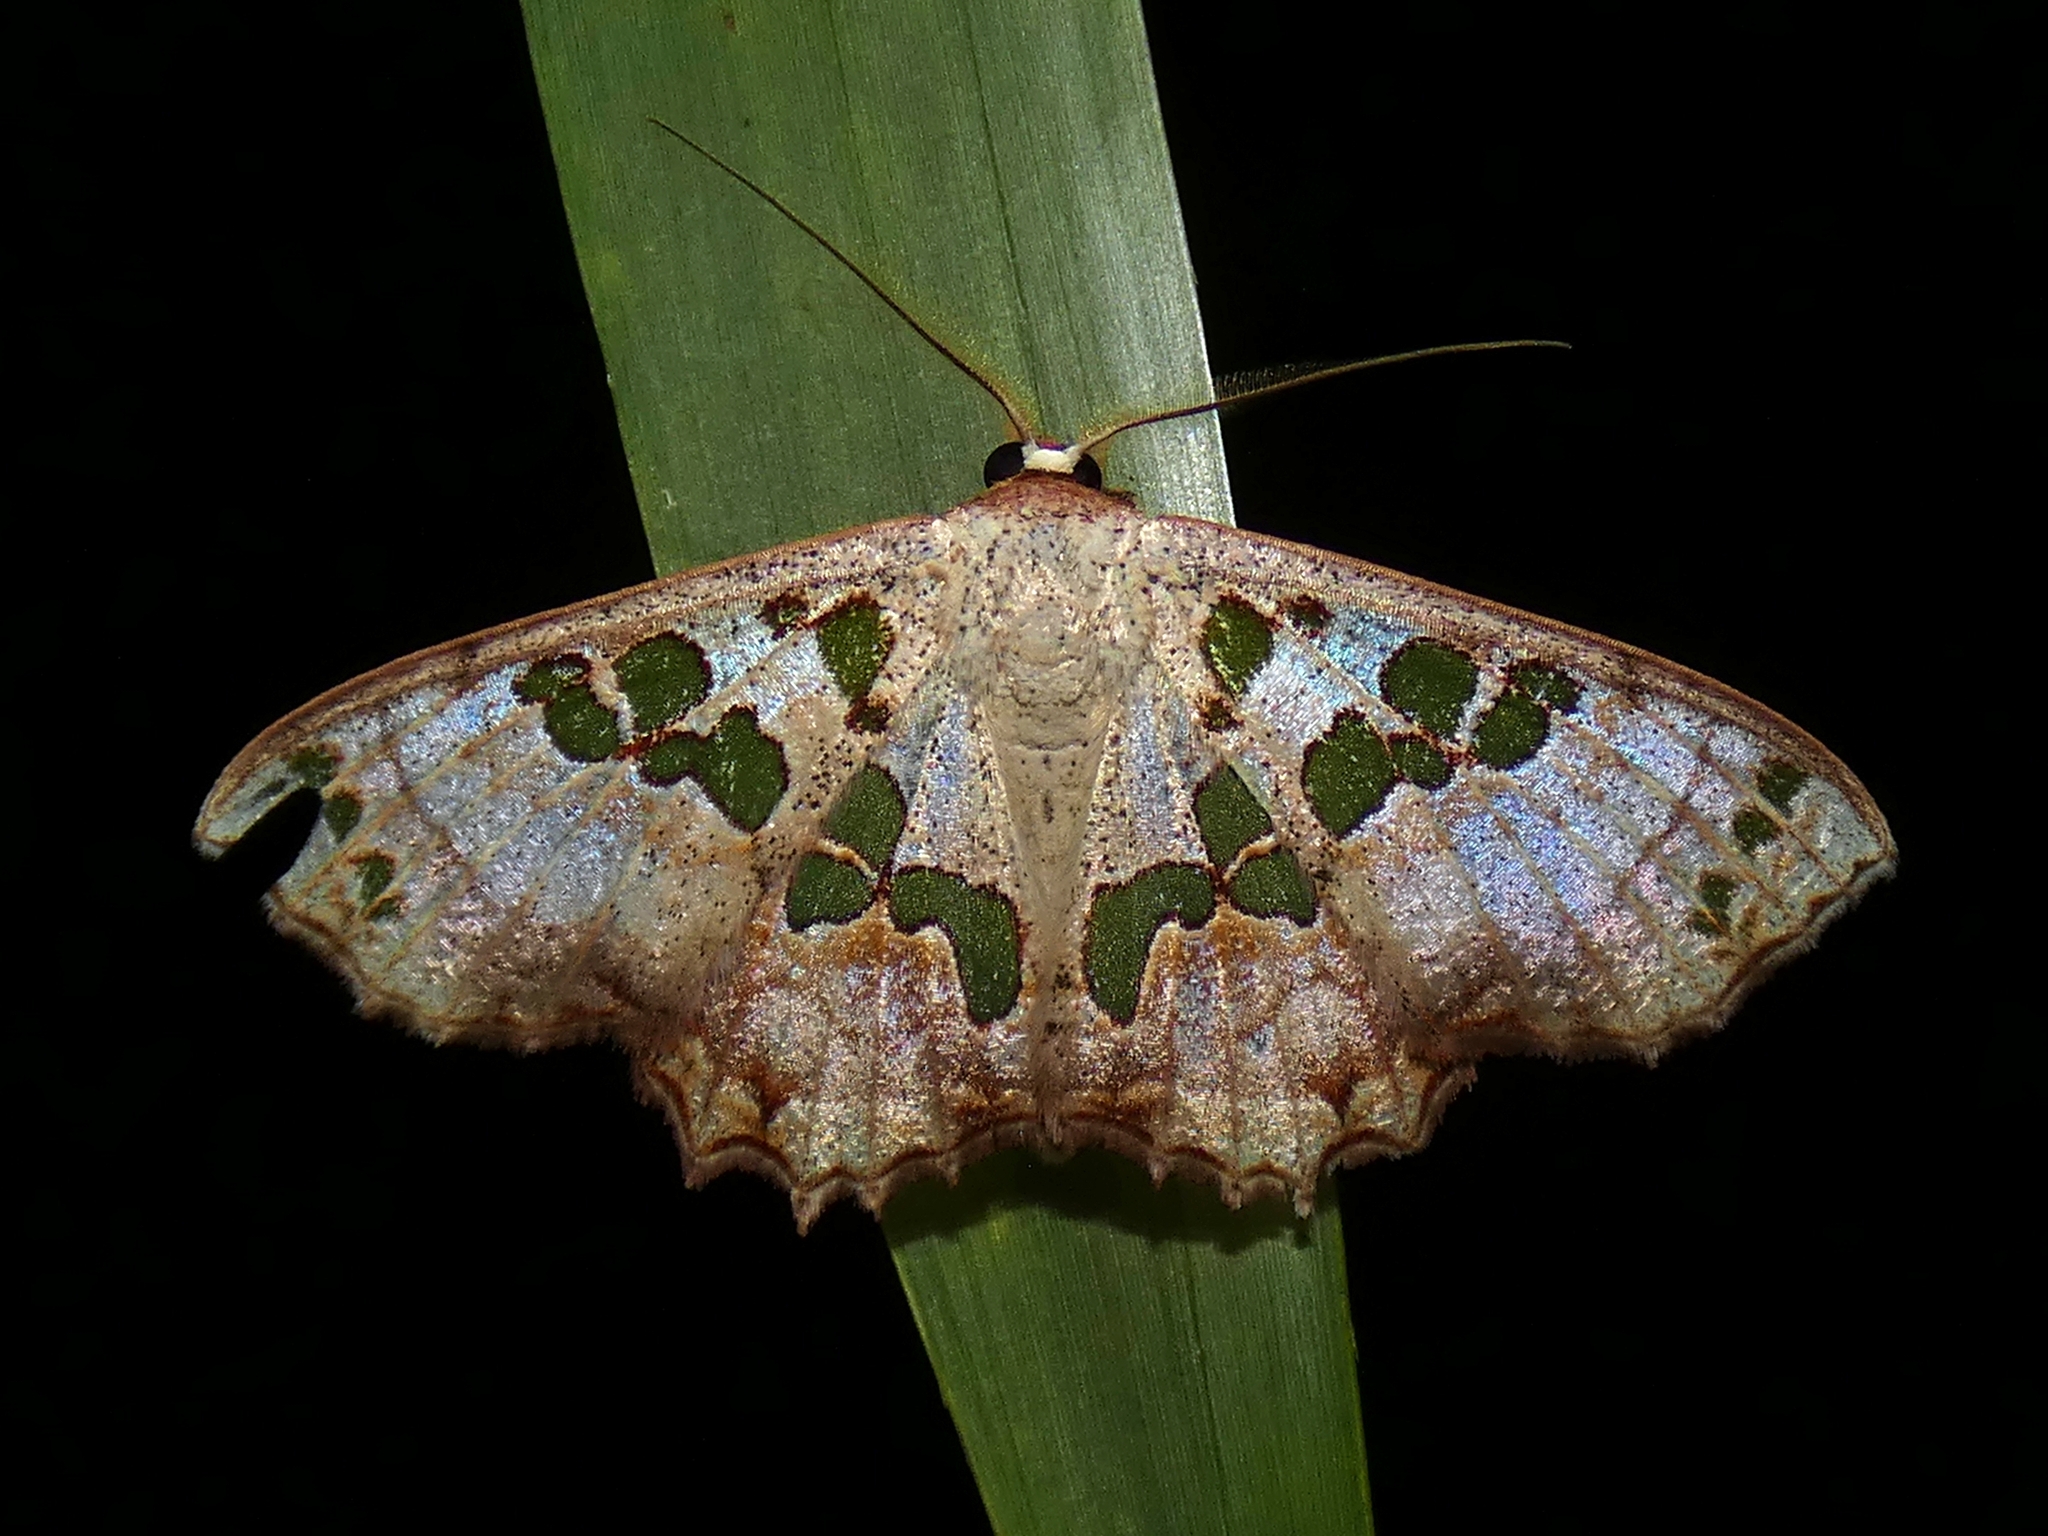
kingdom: Animalia
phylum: Arthropoda
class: Insecta
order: Lepidoptera
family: Geometridae
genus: Scopula
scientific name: Scopula parvimacula
